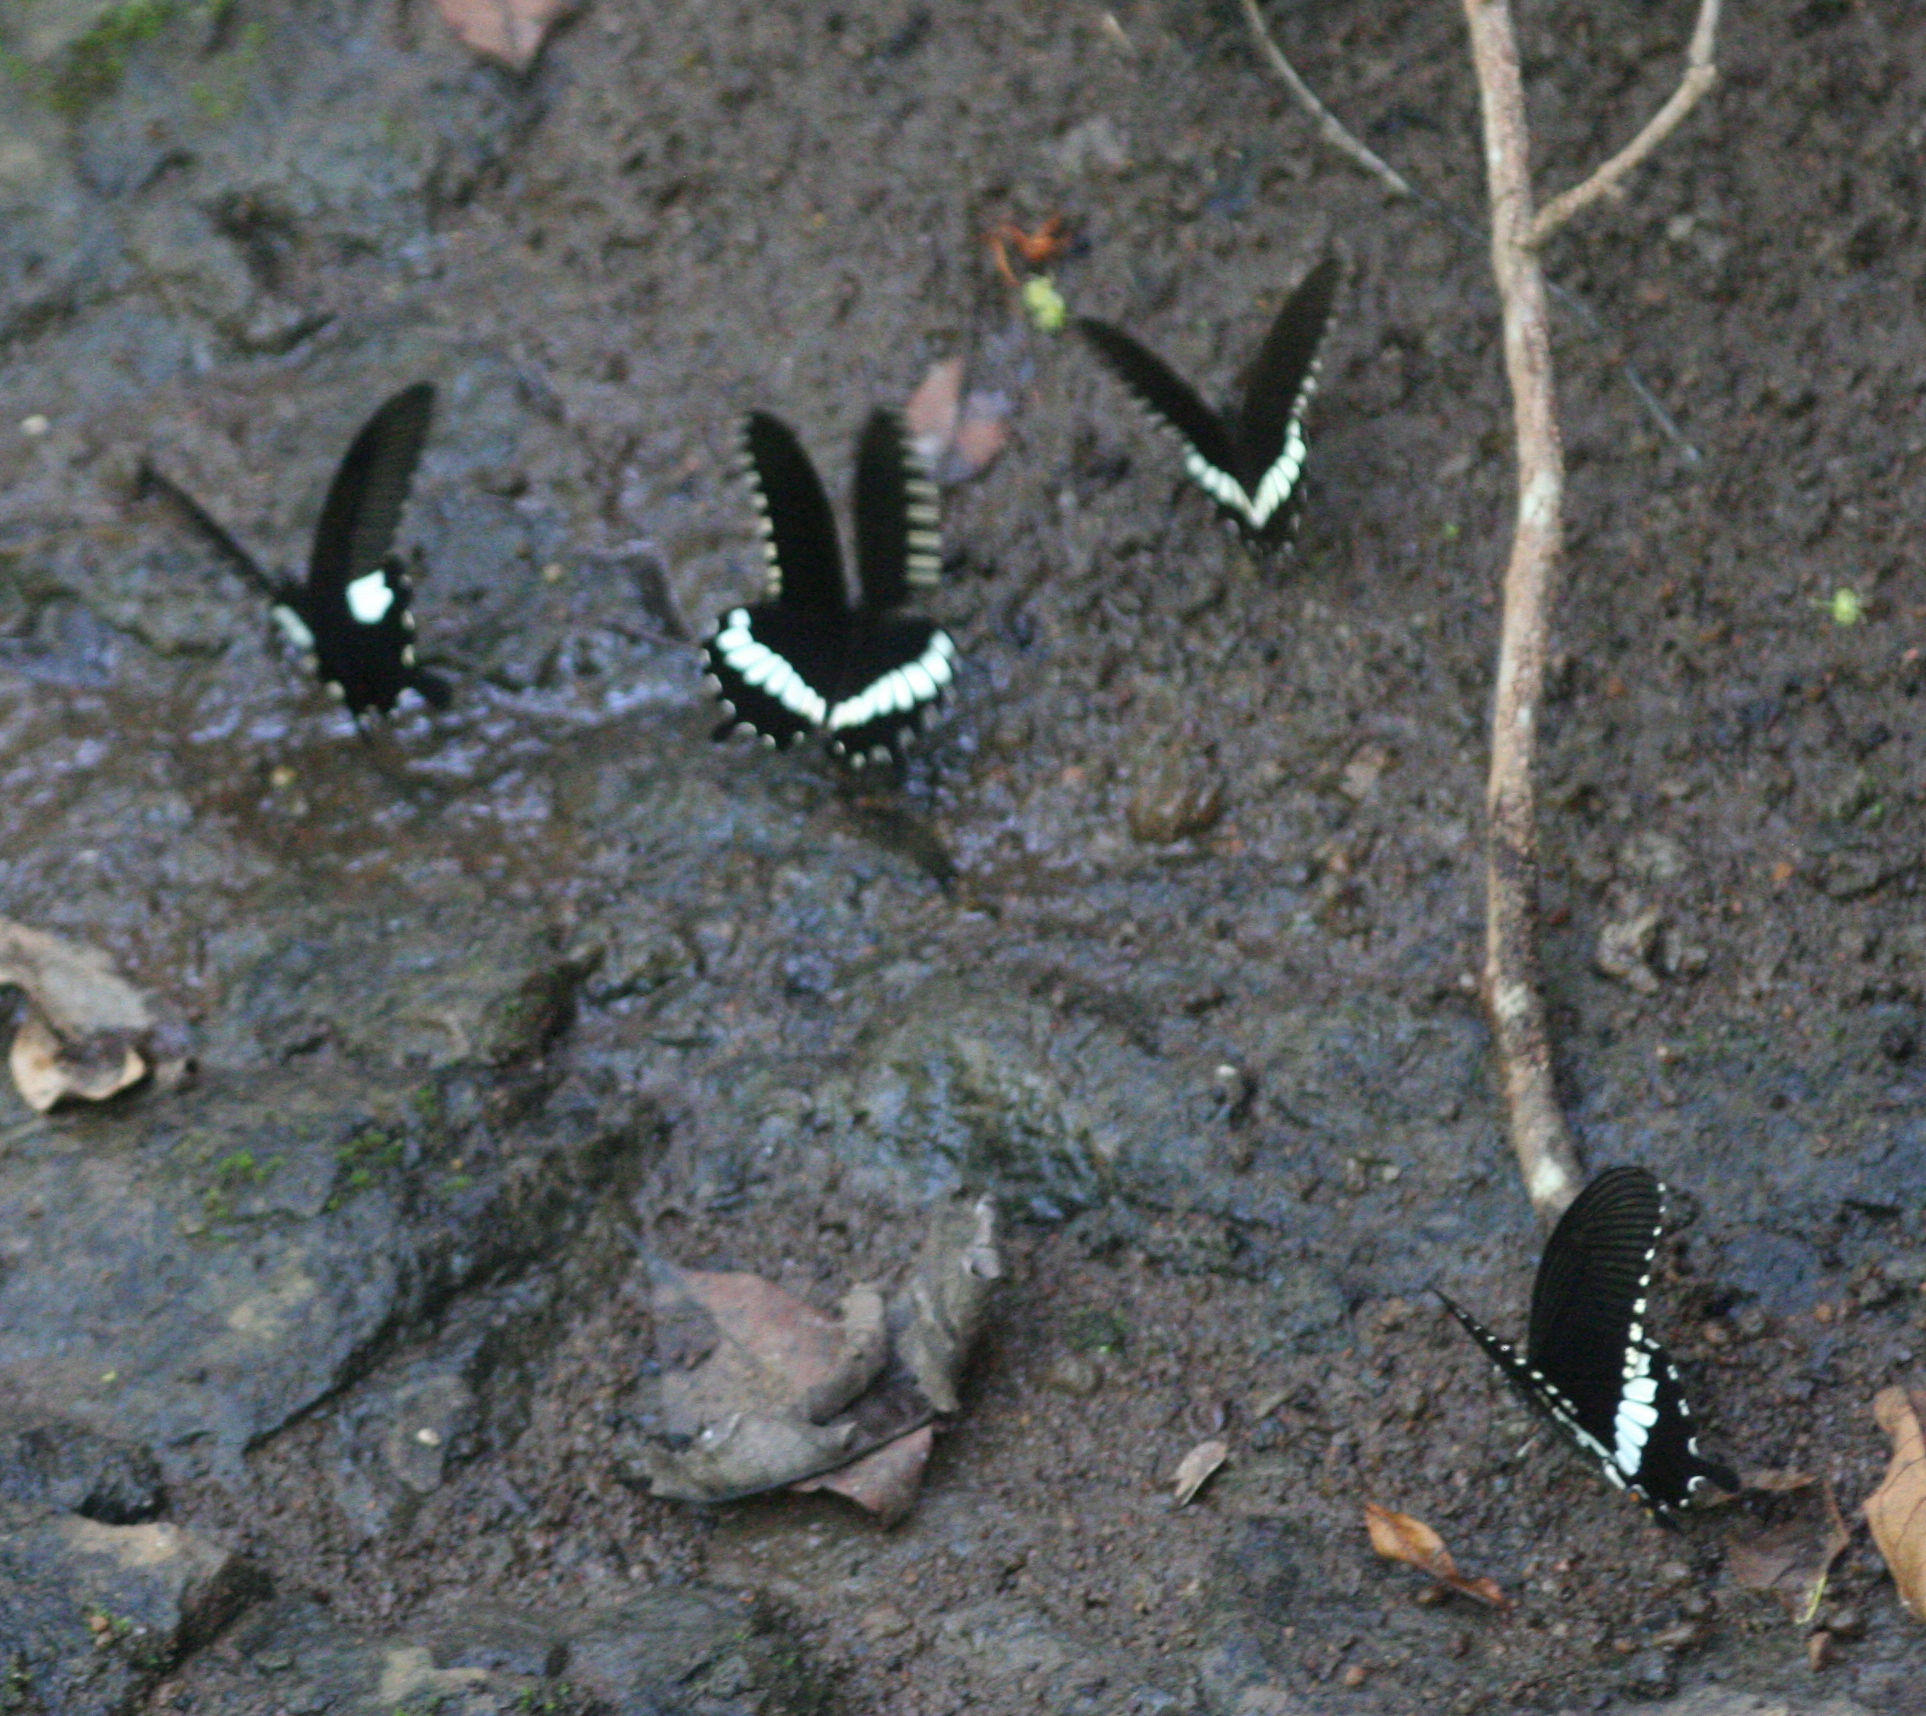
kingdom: Animalia
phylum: Arthropoda
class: Insecta
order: Lepidoptera
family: Papilionidae
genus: Papilio
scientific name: Papilio polytes
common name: Common mormon
